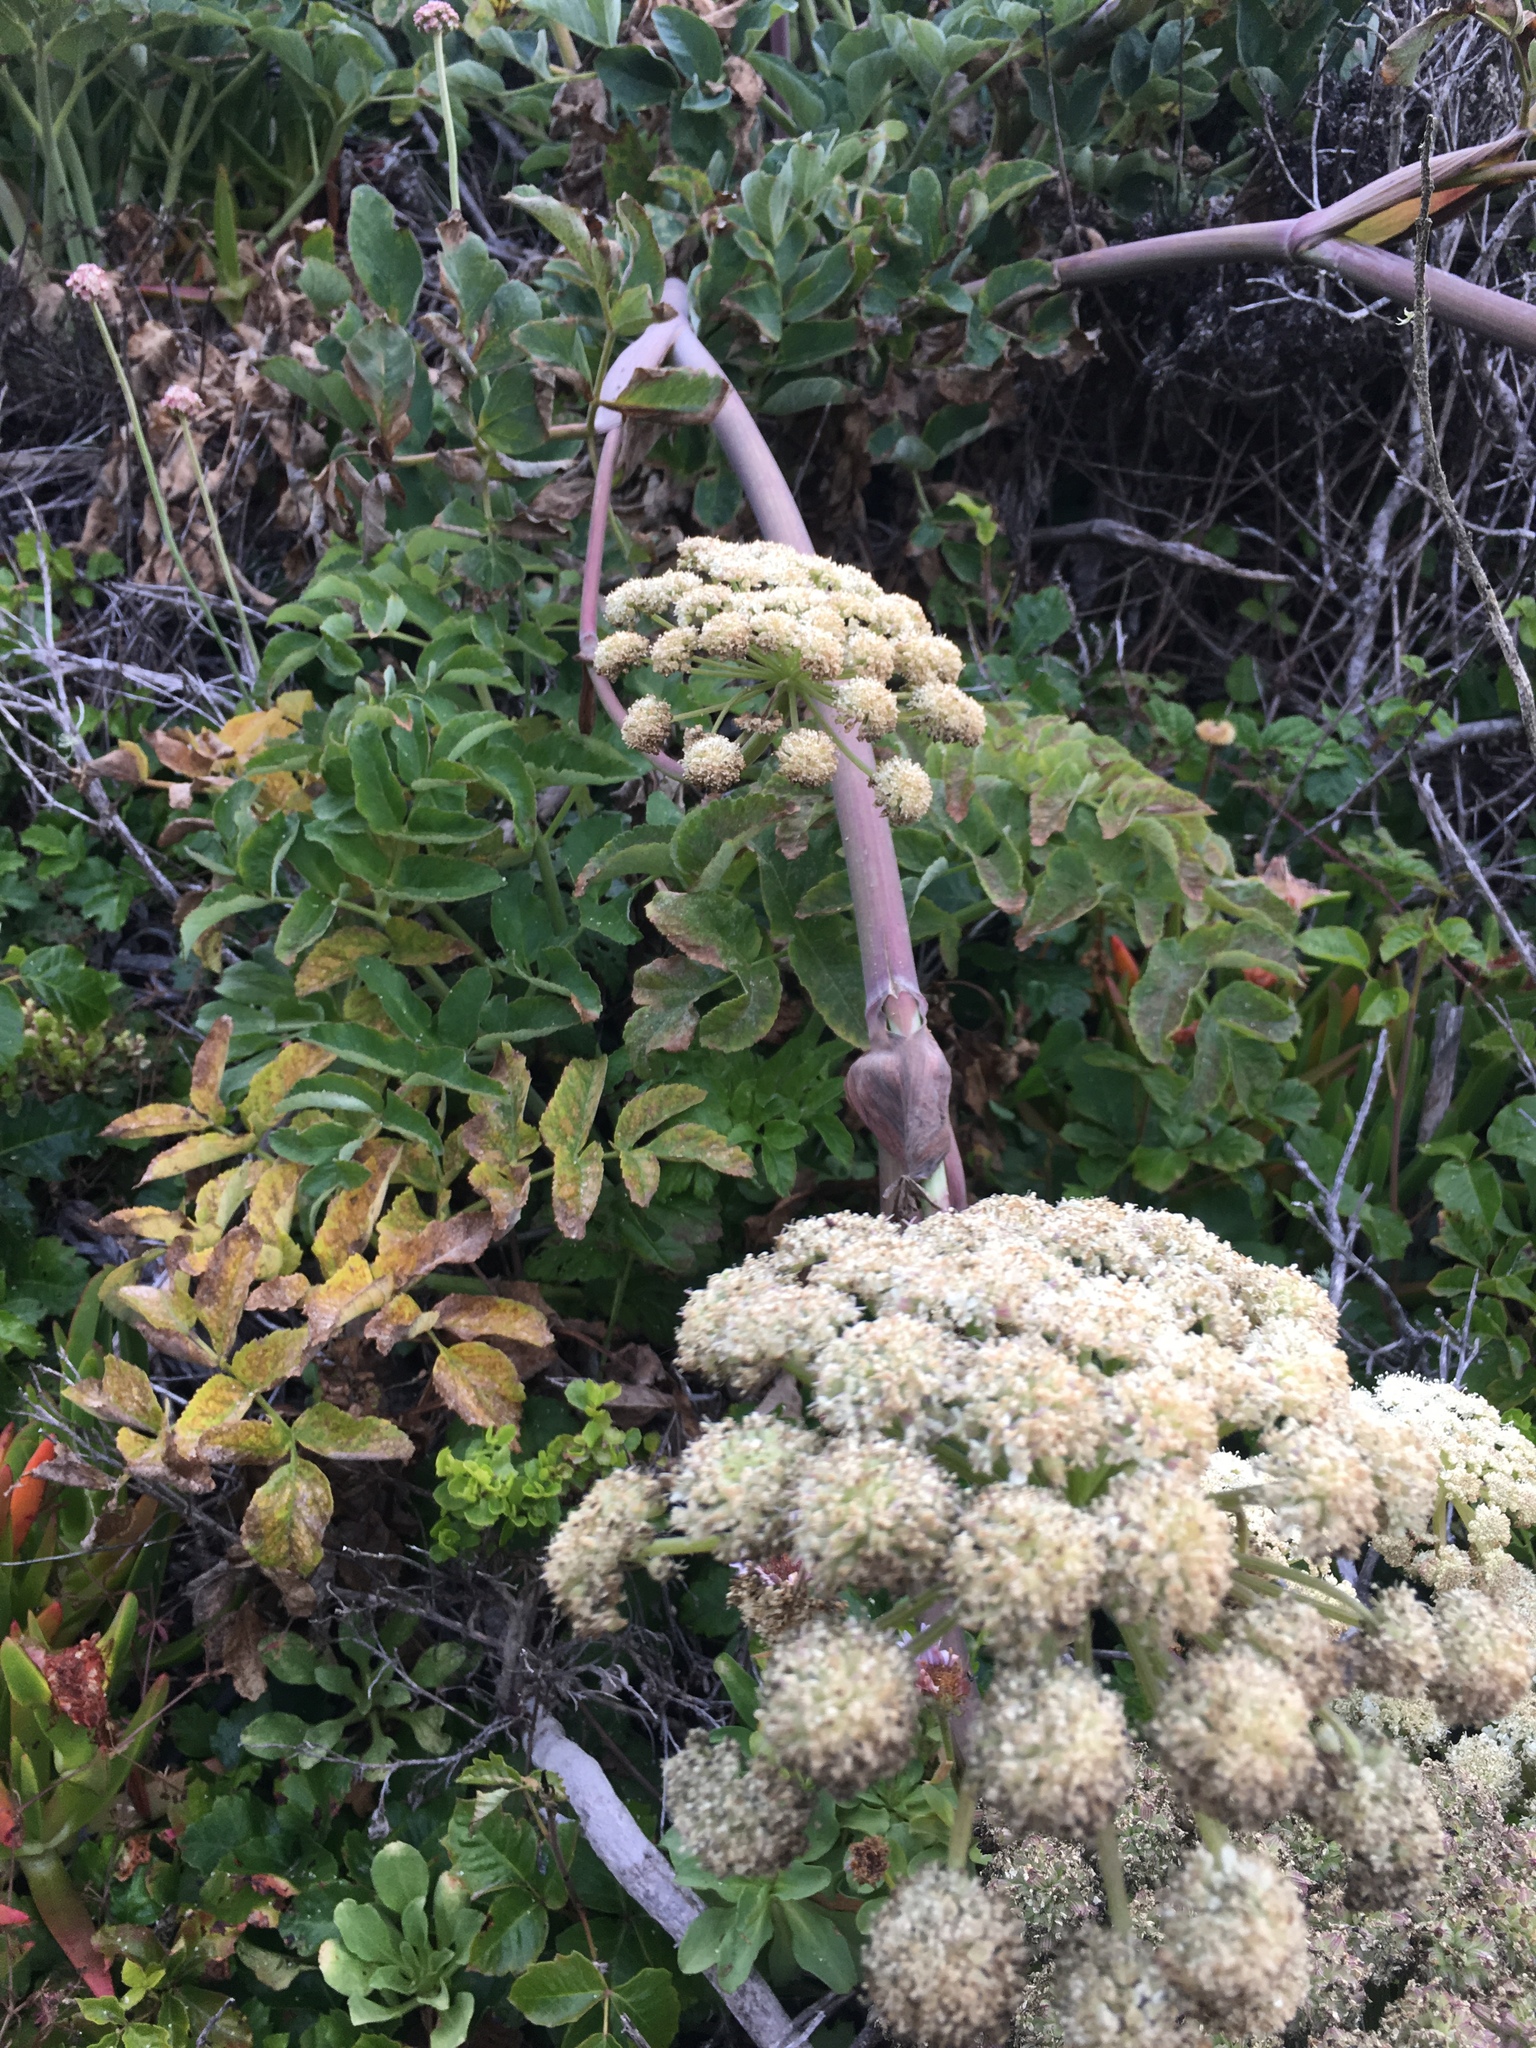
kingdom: Plantae
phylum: Tracheophyta
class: Magnoliopsida
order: Apiales
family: Apiaceae
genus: Angelica
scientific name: Angelica hendersonii
